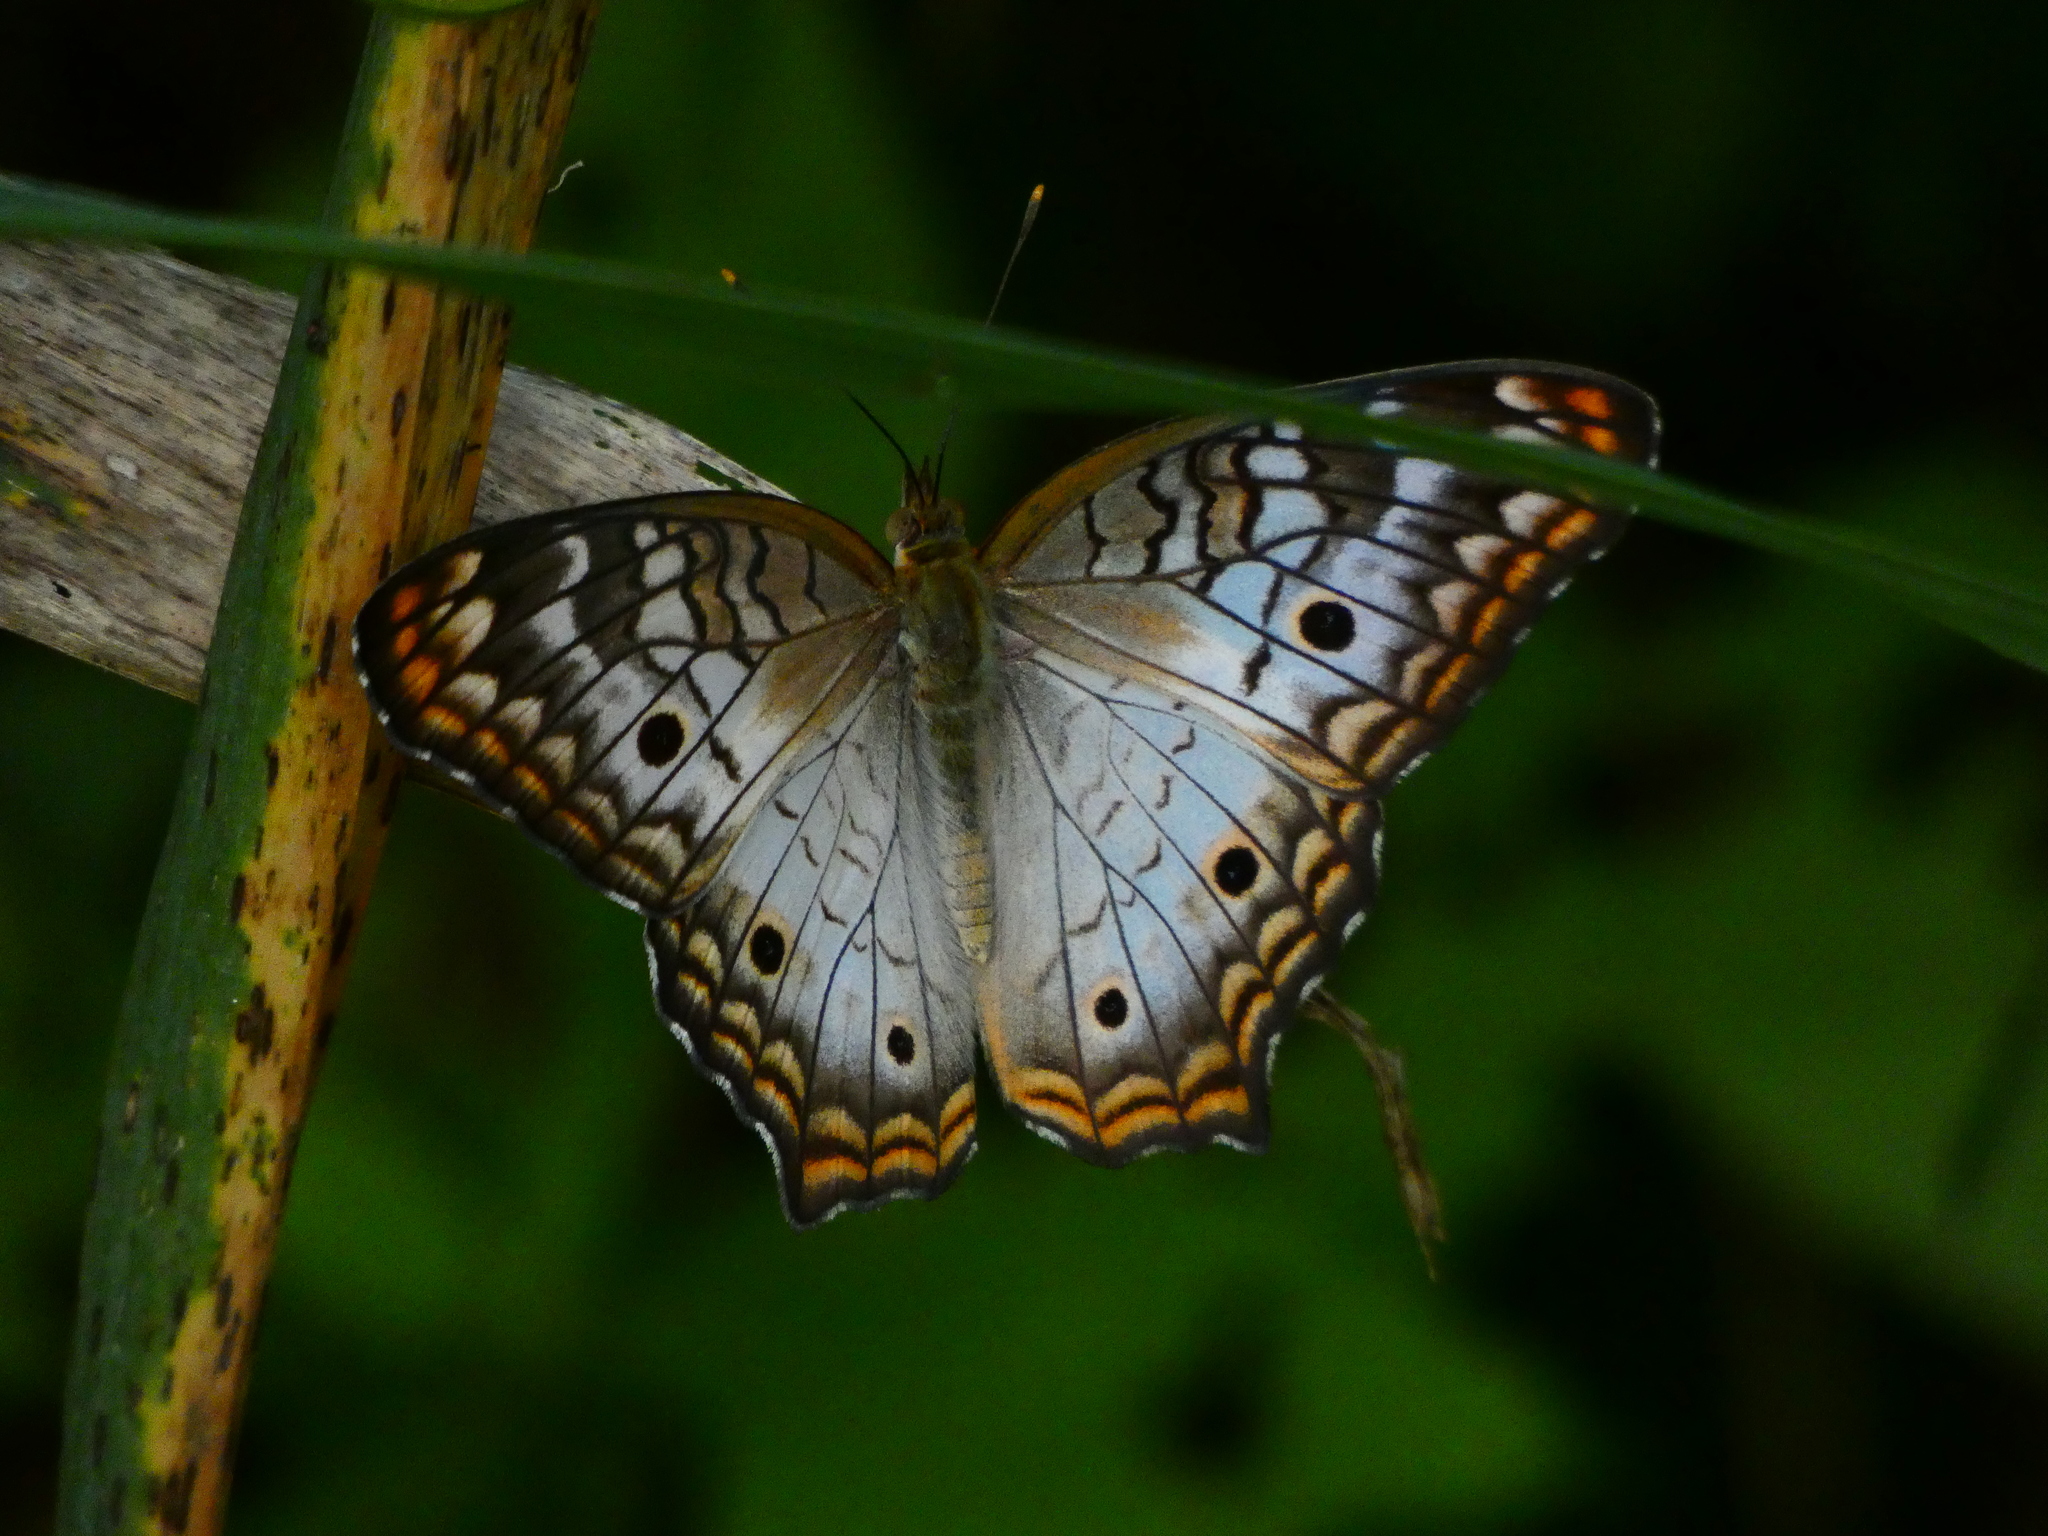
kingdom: Animalia
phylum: Arthropoda
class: Insecta
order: Lepidoptera
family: Nymphalidae
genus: Anartia
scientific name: Anartia jatrophae
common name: White peacock
